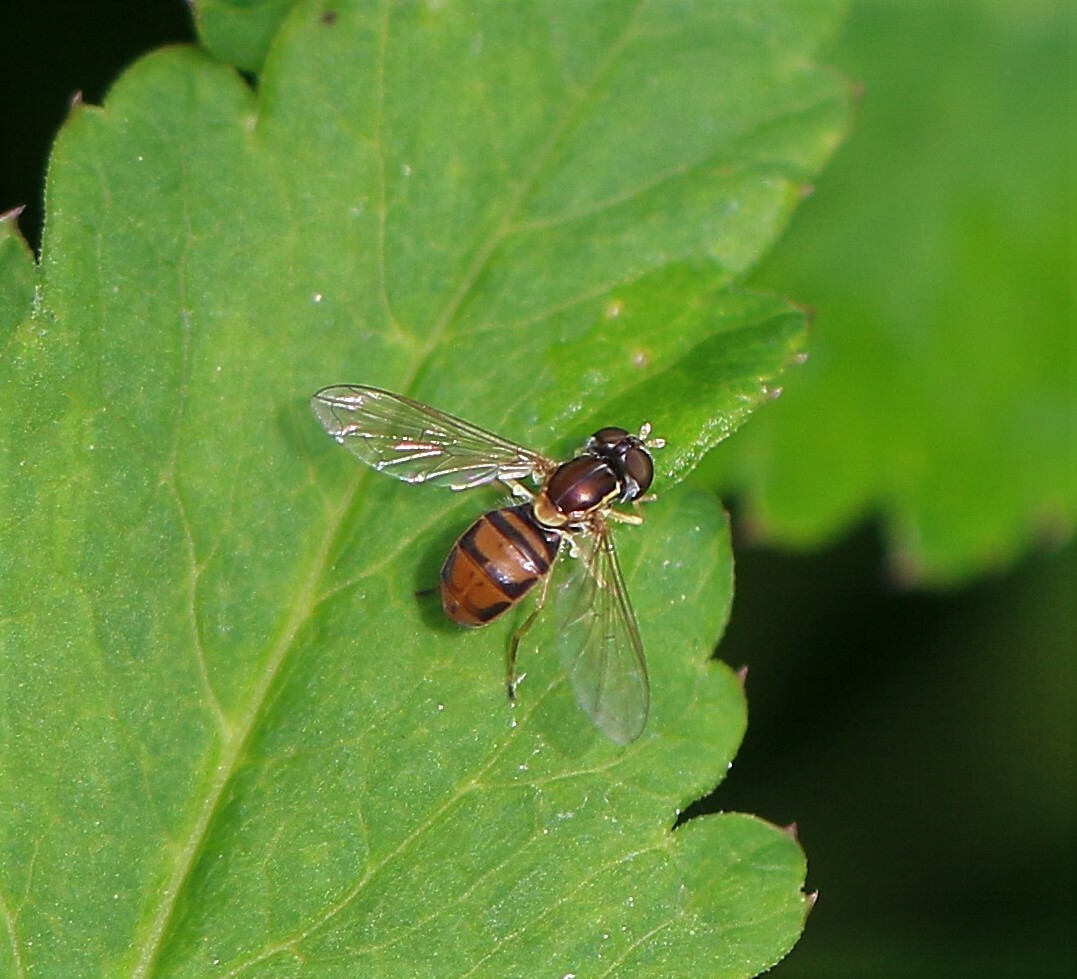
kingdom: Animalia
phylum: Arthropoda
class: Insecta
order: Diptera
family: Syrphidae
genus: Toxomerus
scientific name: Toxomerus marginatus
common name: Syrphid fly
